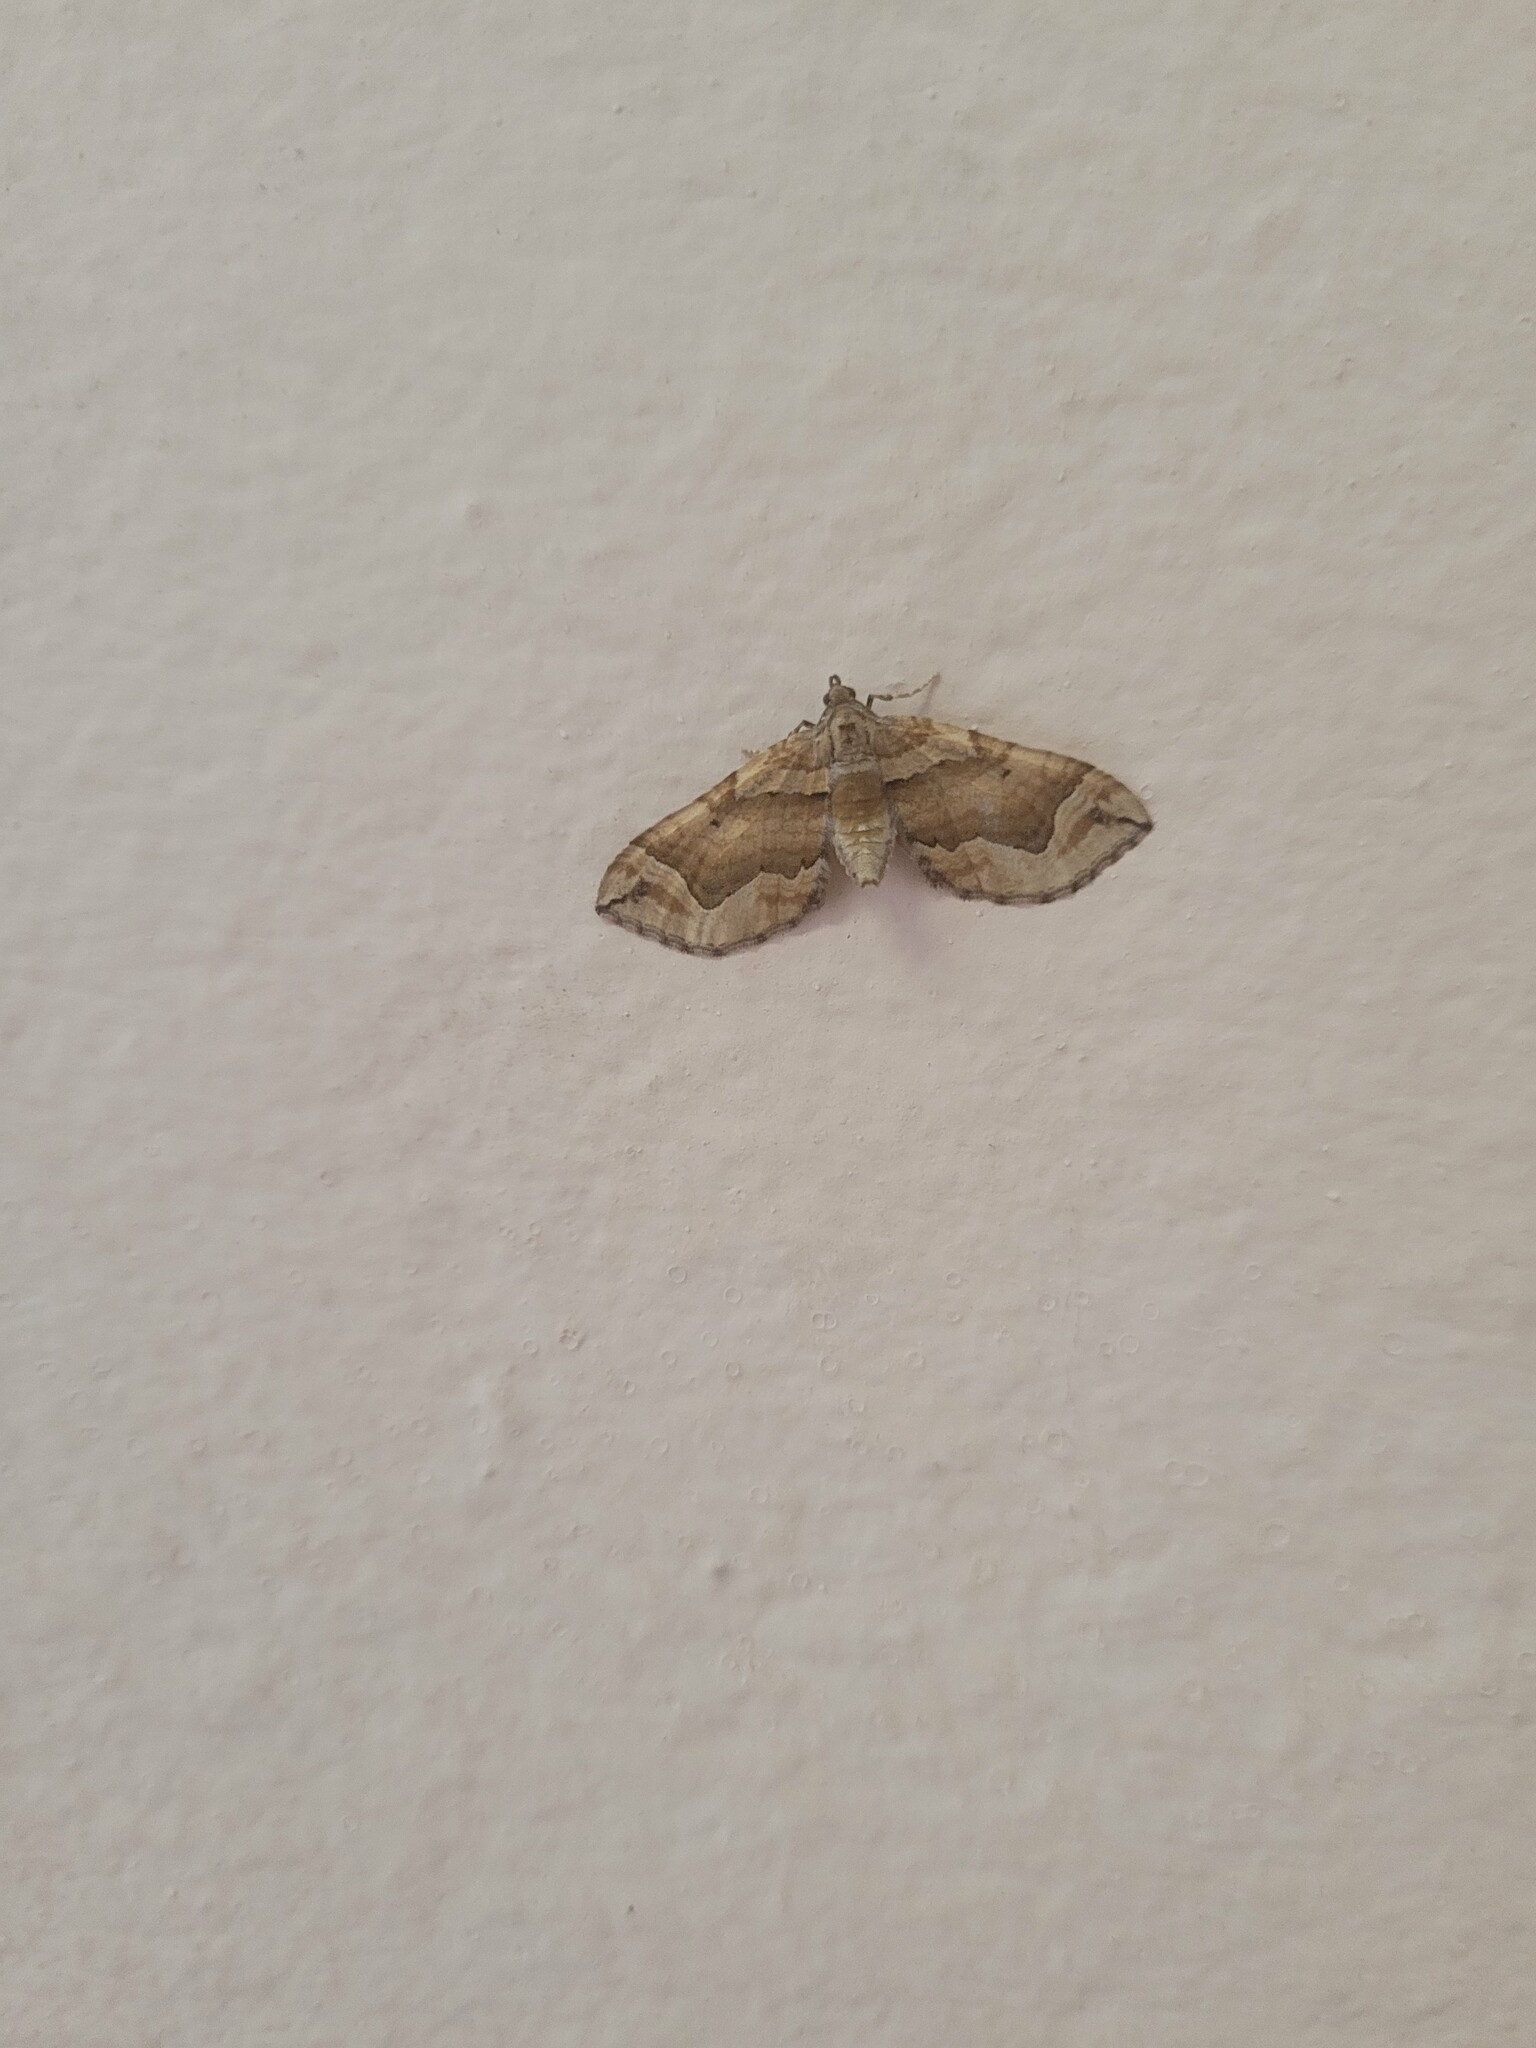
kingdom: Animalia
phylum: Arthropoda
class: Insecta
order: Lepidoptera
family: Geometridae
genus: Pelurga
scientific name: Pelurga comitata
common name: Dark spinach
